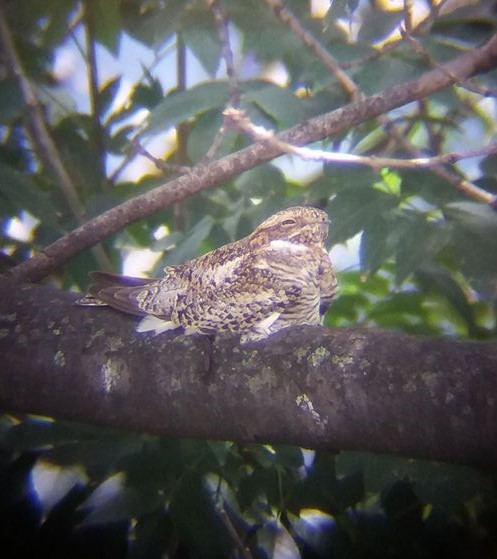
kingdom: Animalia
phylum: Chordata
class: Aves
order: Caprimulgiformes
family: Caprimulgidae
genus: Chordeiles
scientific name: Chordeiles minor
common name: Common nighthawk
